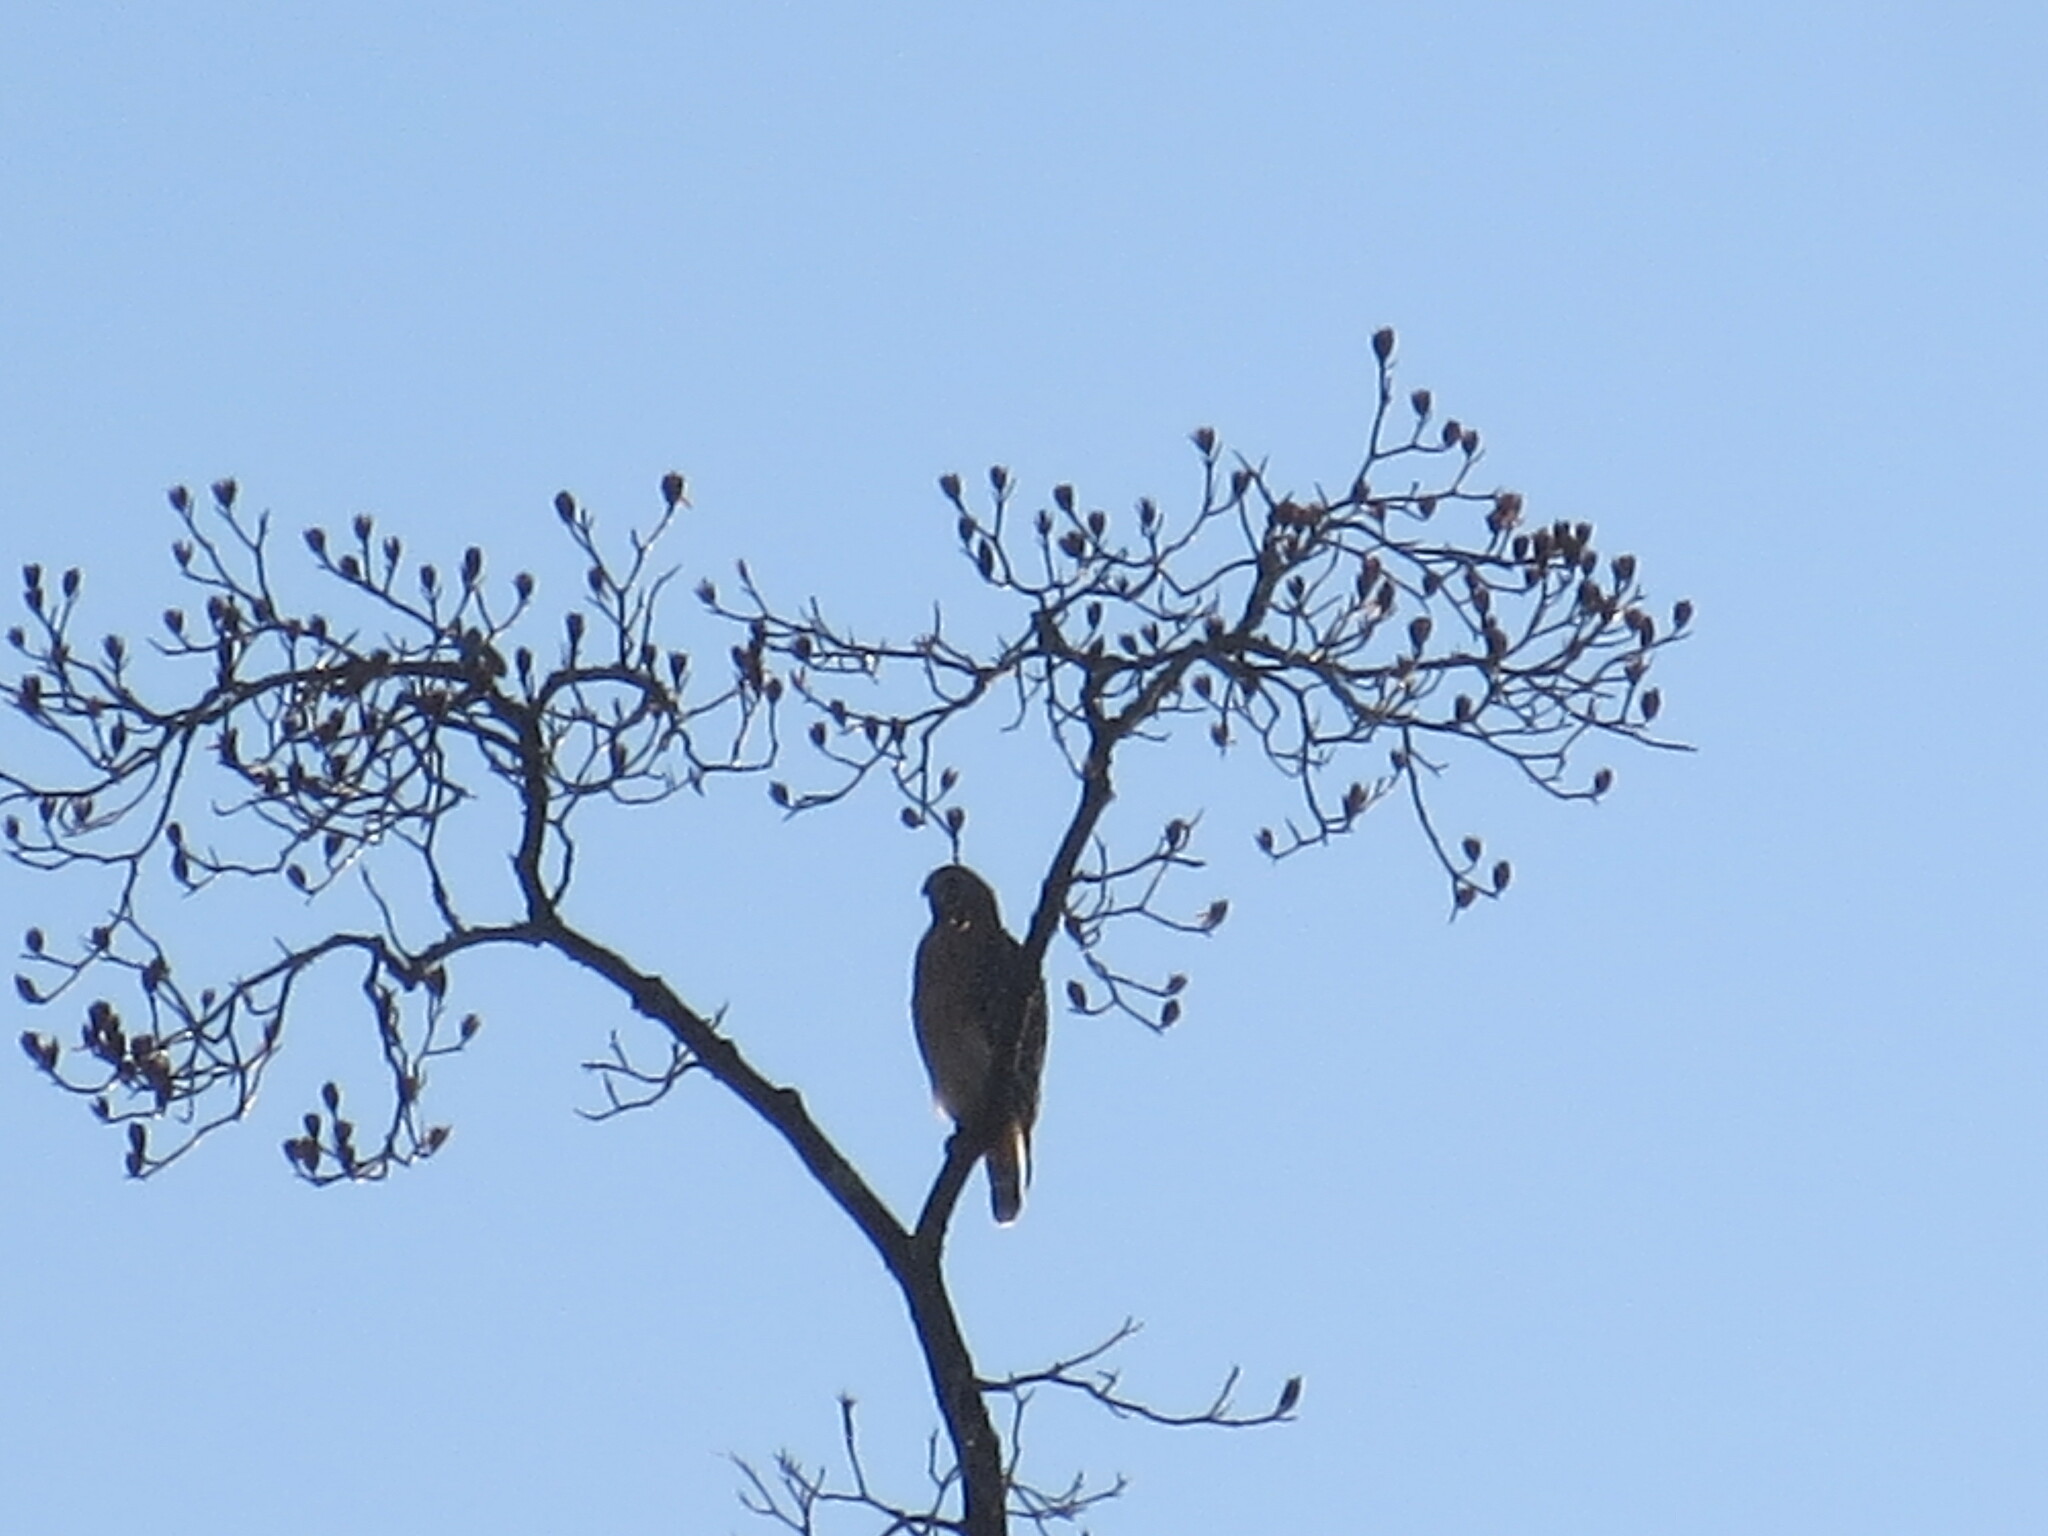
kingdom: Animalia
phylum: Chordata
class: Aves
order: Accipitriformes
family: Accipitridae
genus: Buteo
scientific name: Buteo lineatus
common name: Red-shouldered hawk
